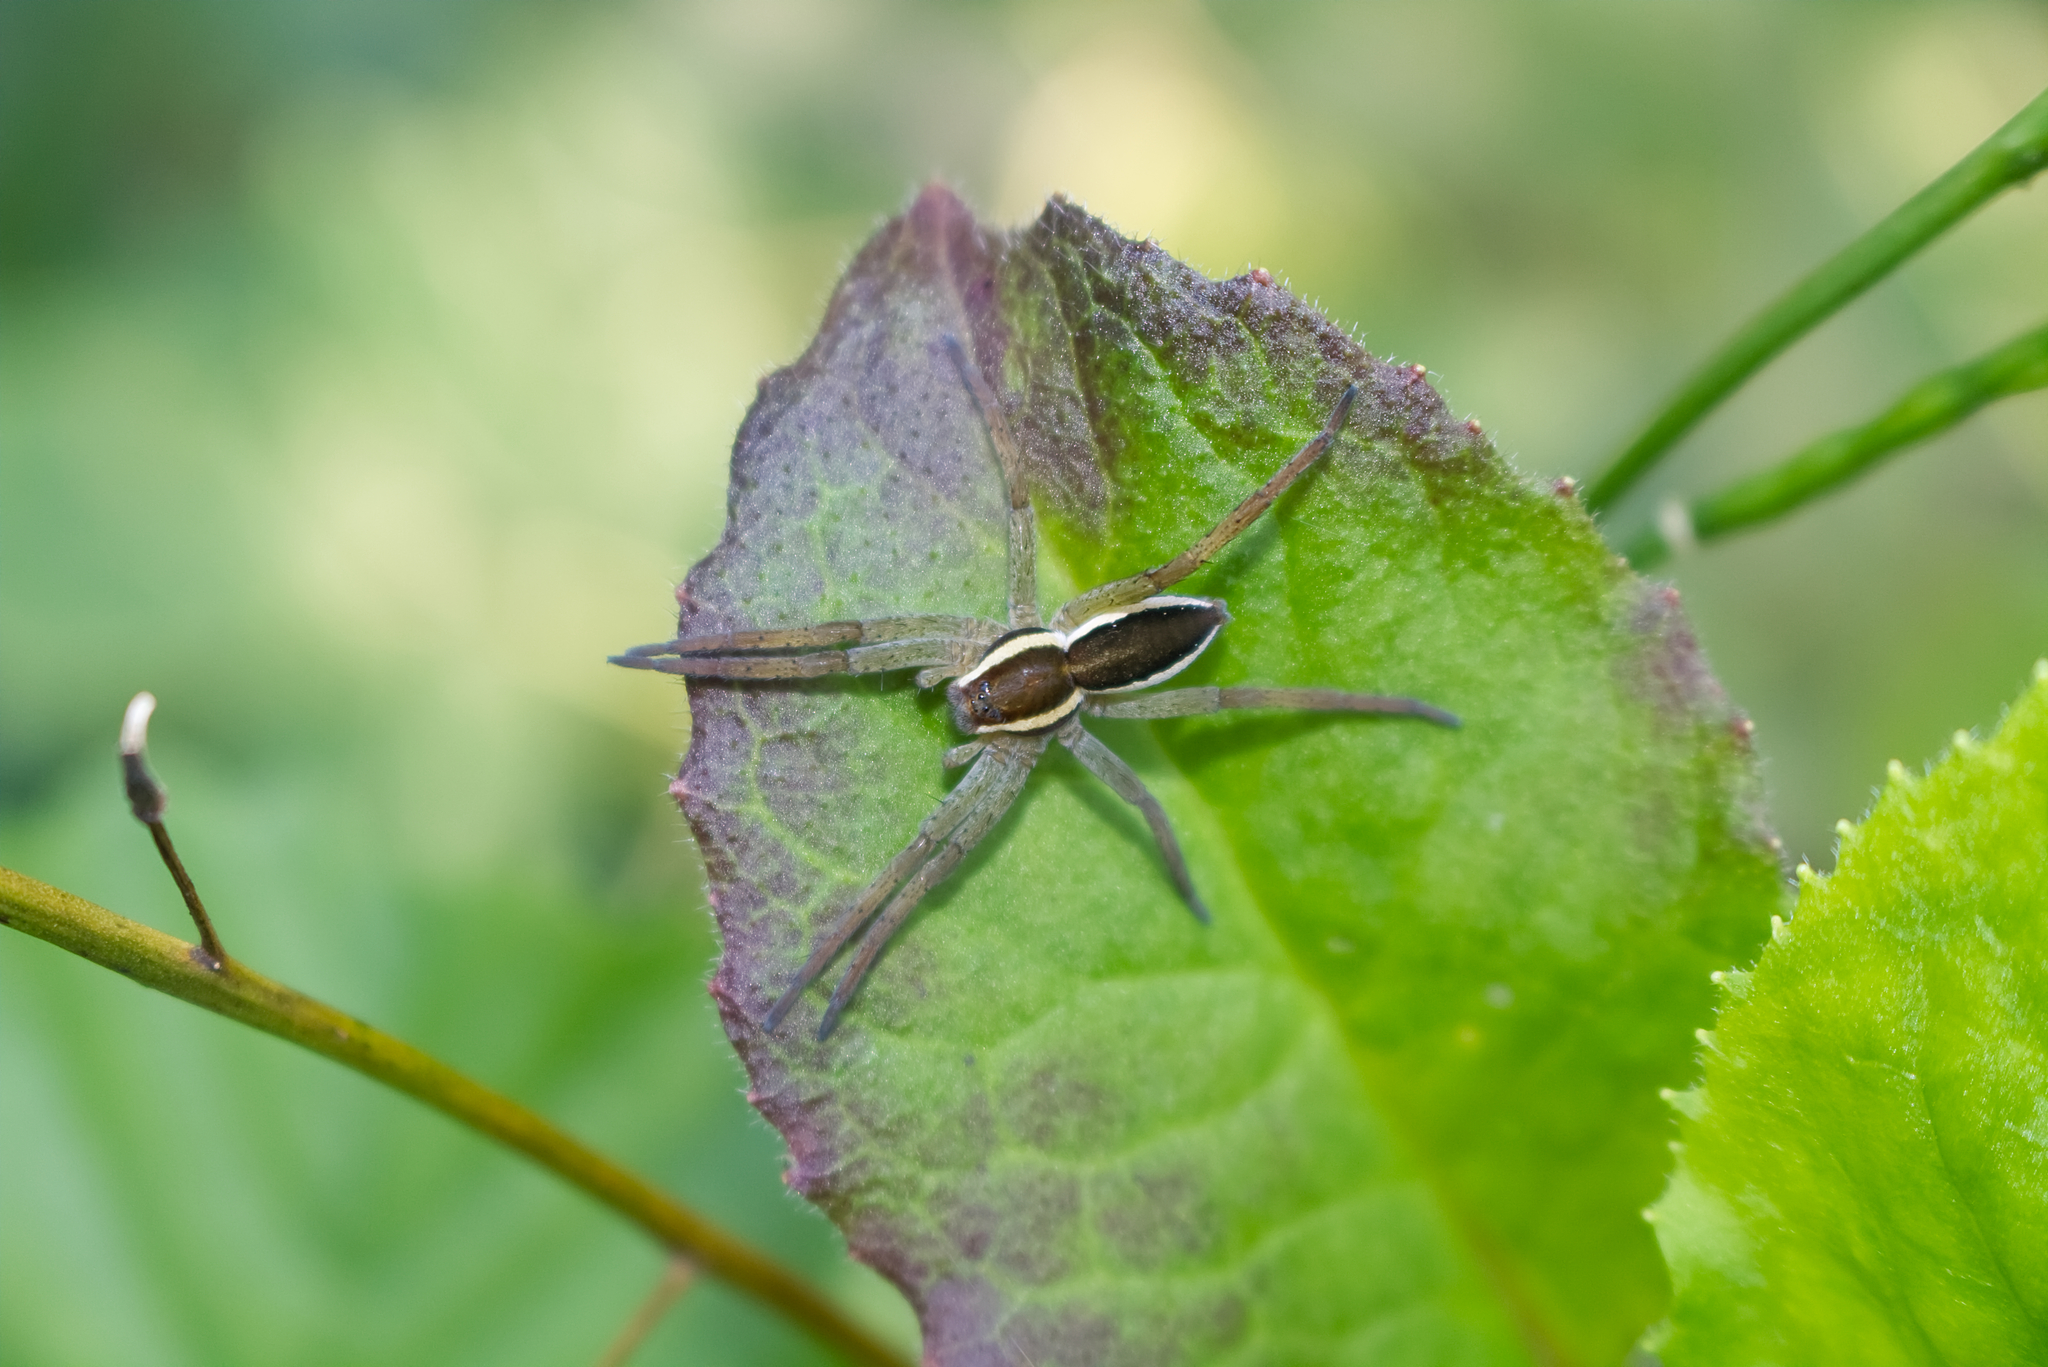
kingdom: Animalia
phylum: Arthropoda
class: Arachnida
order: Araneae
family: Pisauridae
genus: Dolomedes
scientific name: Dolomedes fimbriatus
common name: Raft spider
